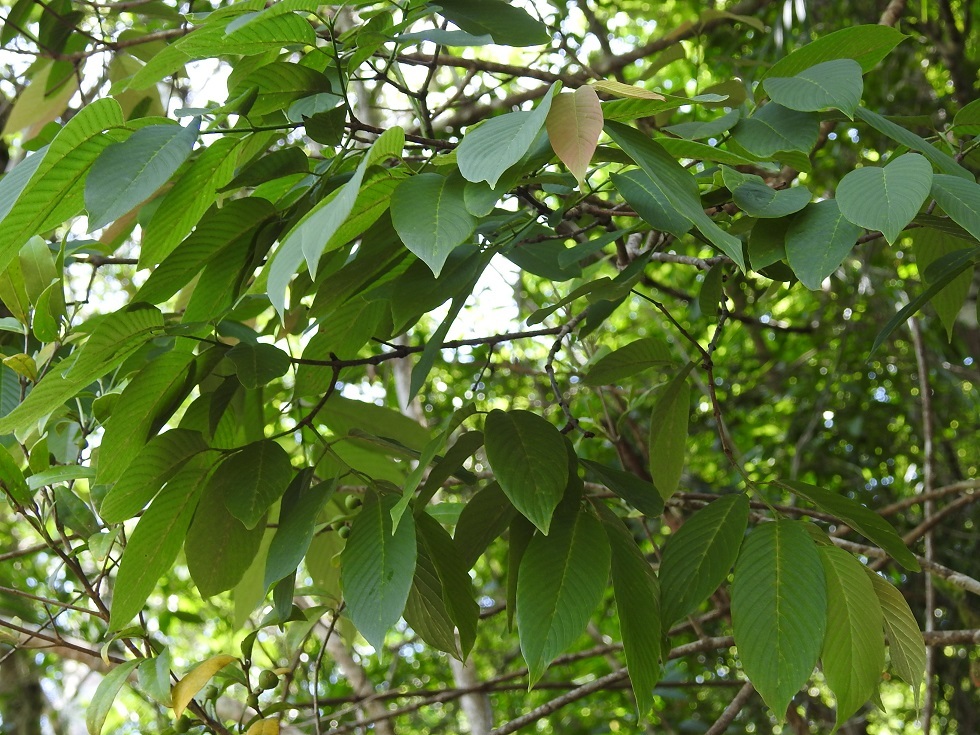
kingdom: Plantae
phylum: Tracheophyta
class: Magnoliopsida
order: Rosales
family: Rhamnaceae
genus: Karwinskia
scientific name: Karwinskia calderonii
